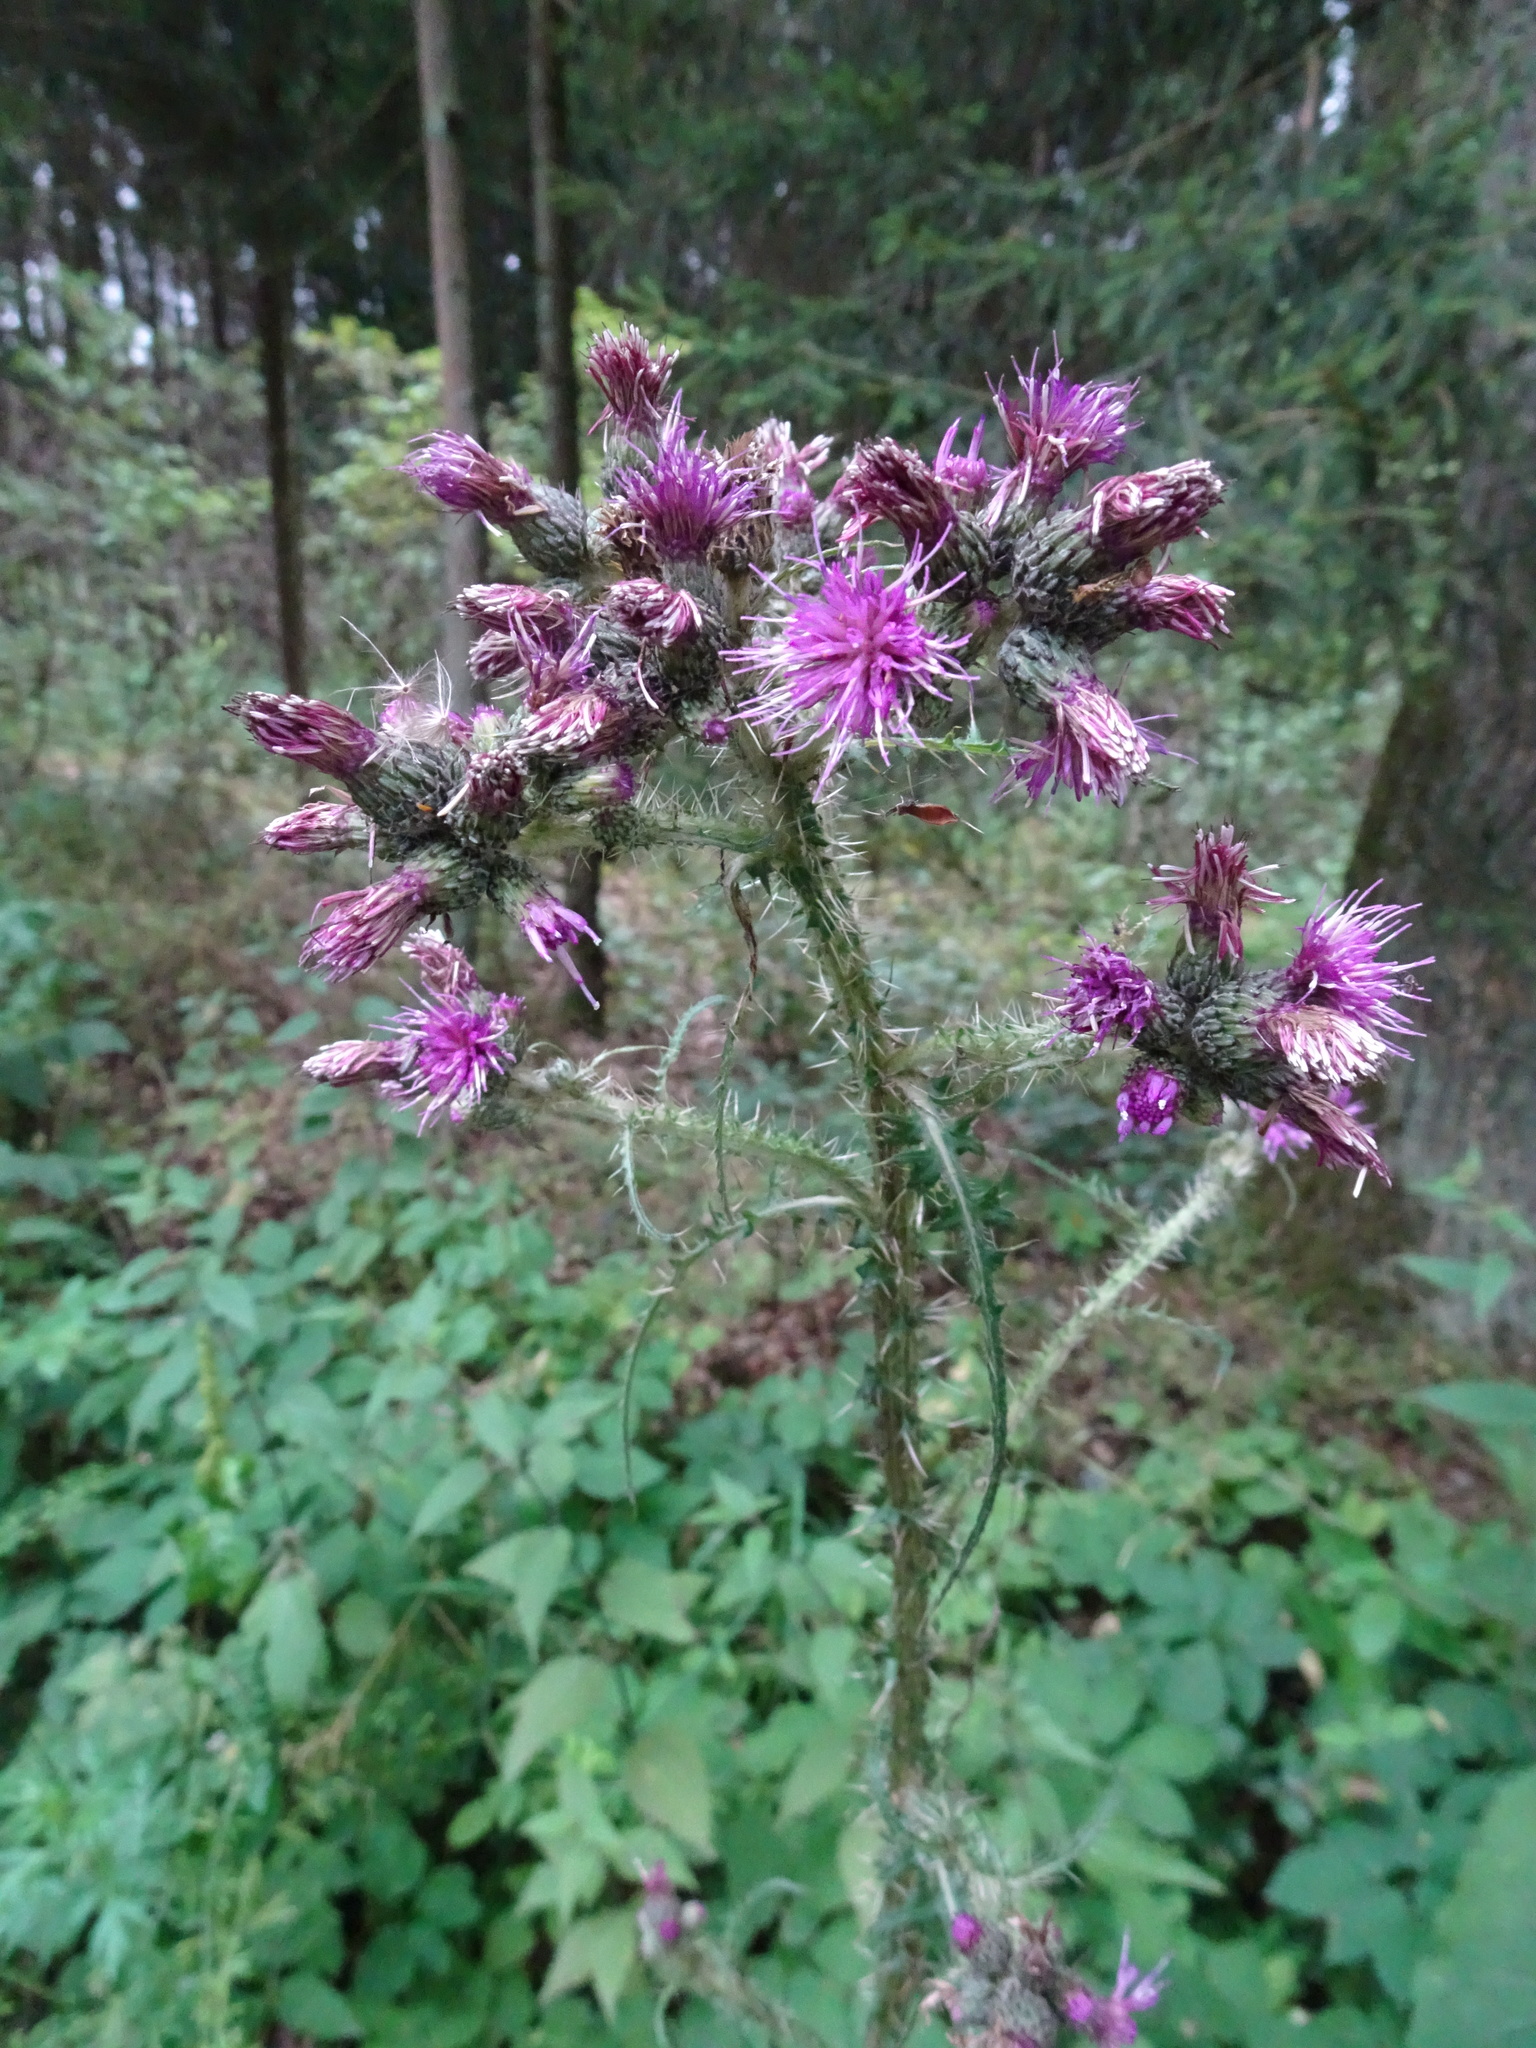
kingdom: Plantae
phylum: Tracheophyta
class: Magnoliopsida
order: Asterales
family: Asteraceae
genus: Cirsium
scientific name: Cirsium palustre
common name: Marsh thistle
